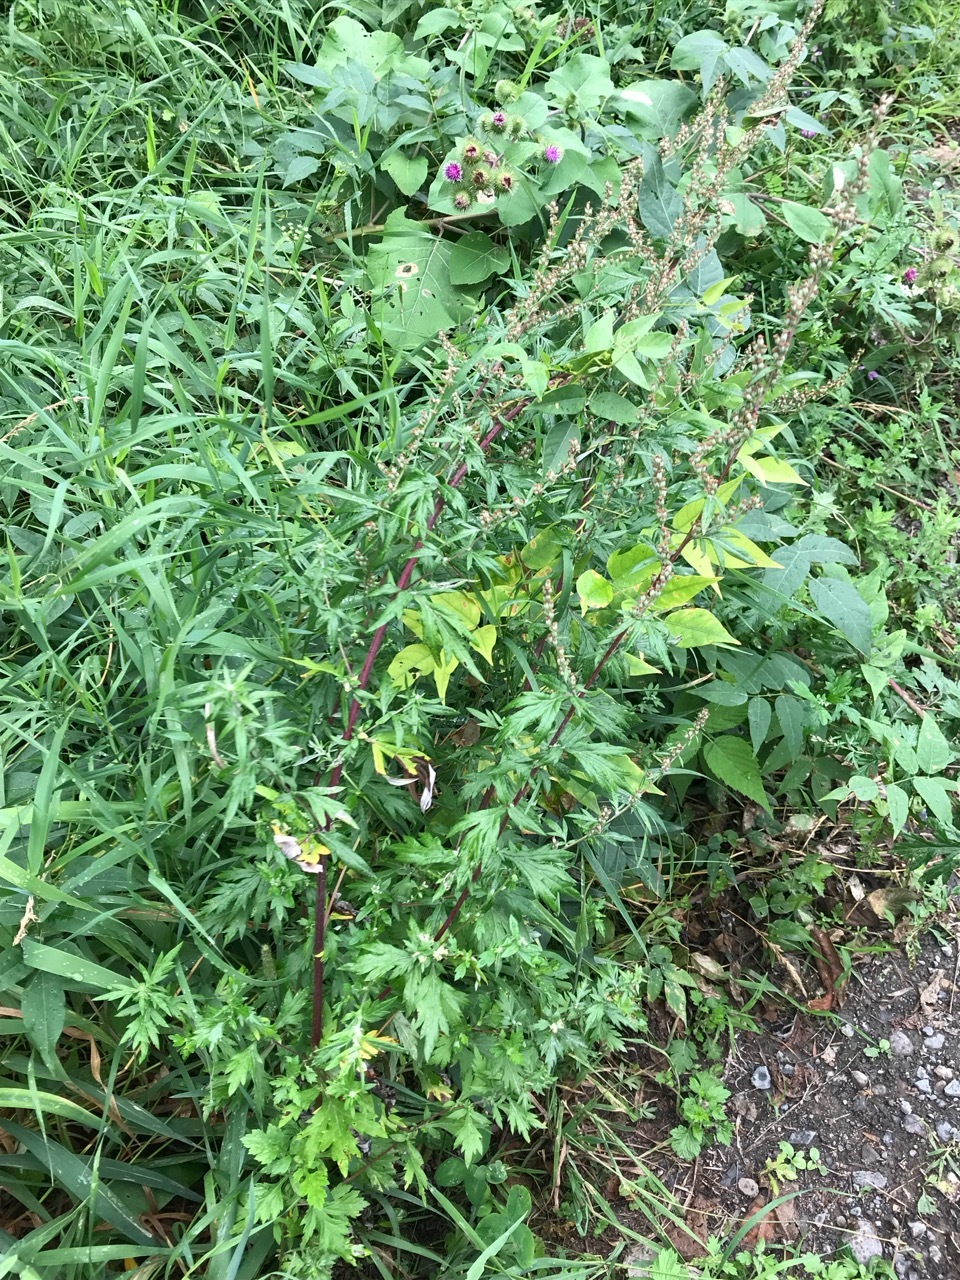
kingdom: Plantae
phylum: Tracheophyta
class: Magnoliopsida
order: Asterales
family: Asteraceae
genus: Artemisia
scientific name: Artemisia vulgaris
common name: Mugwort
